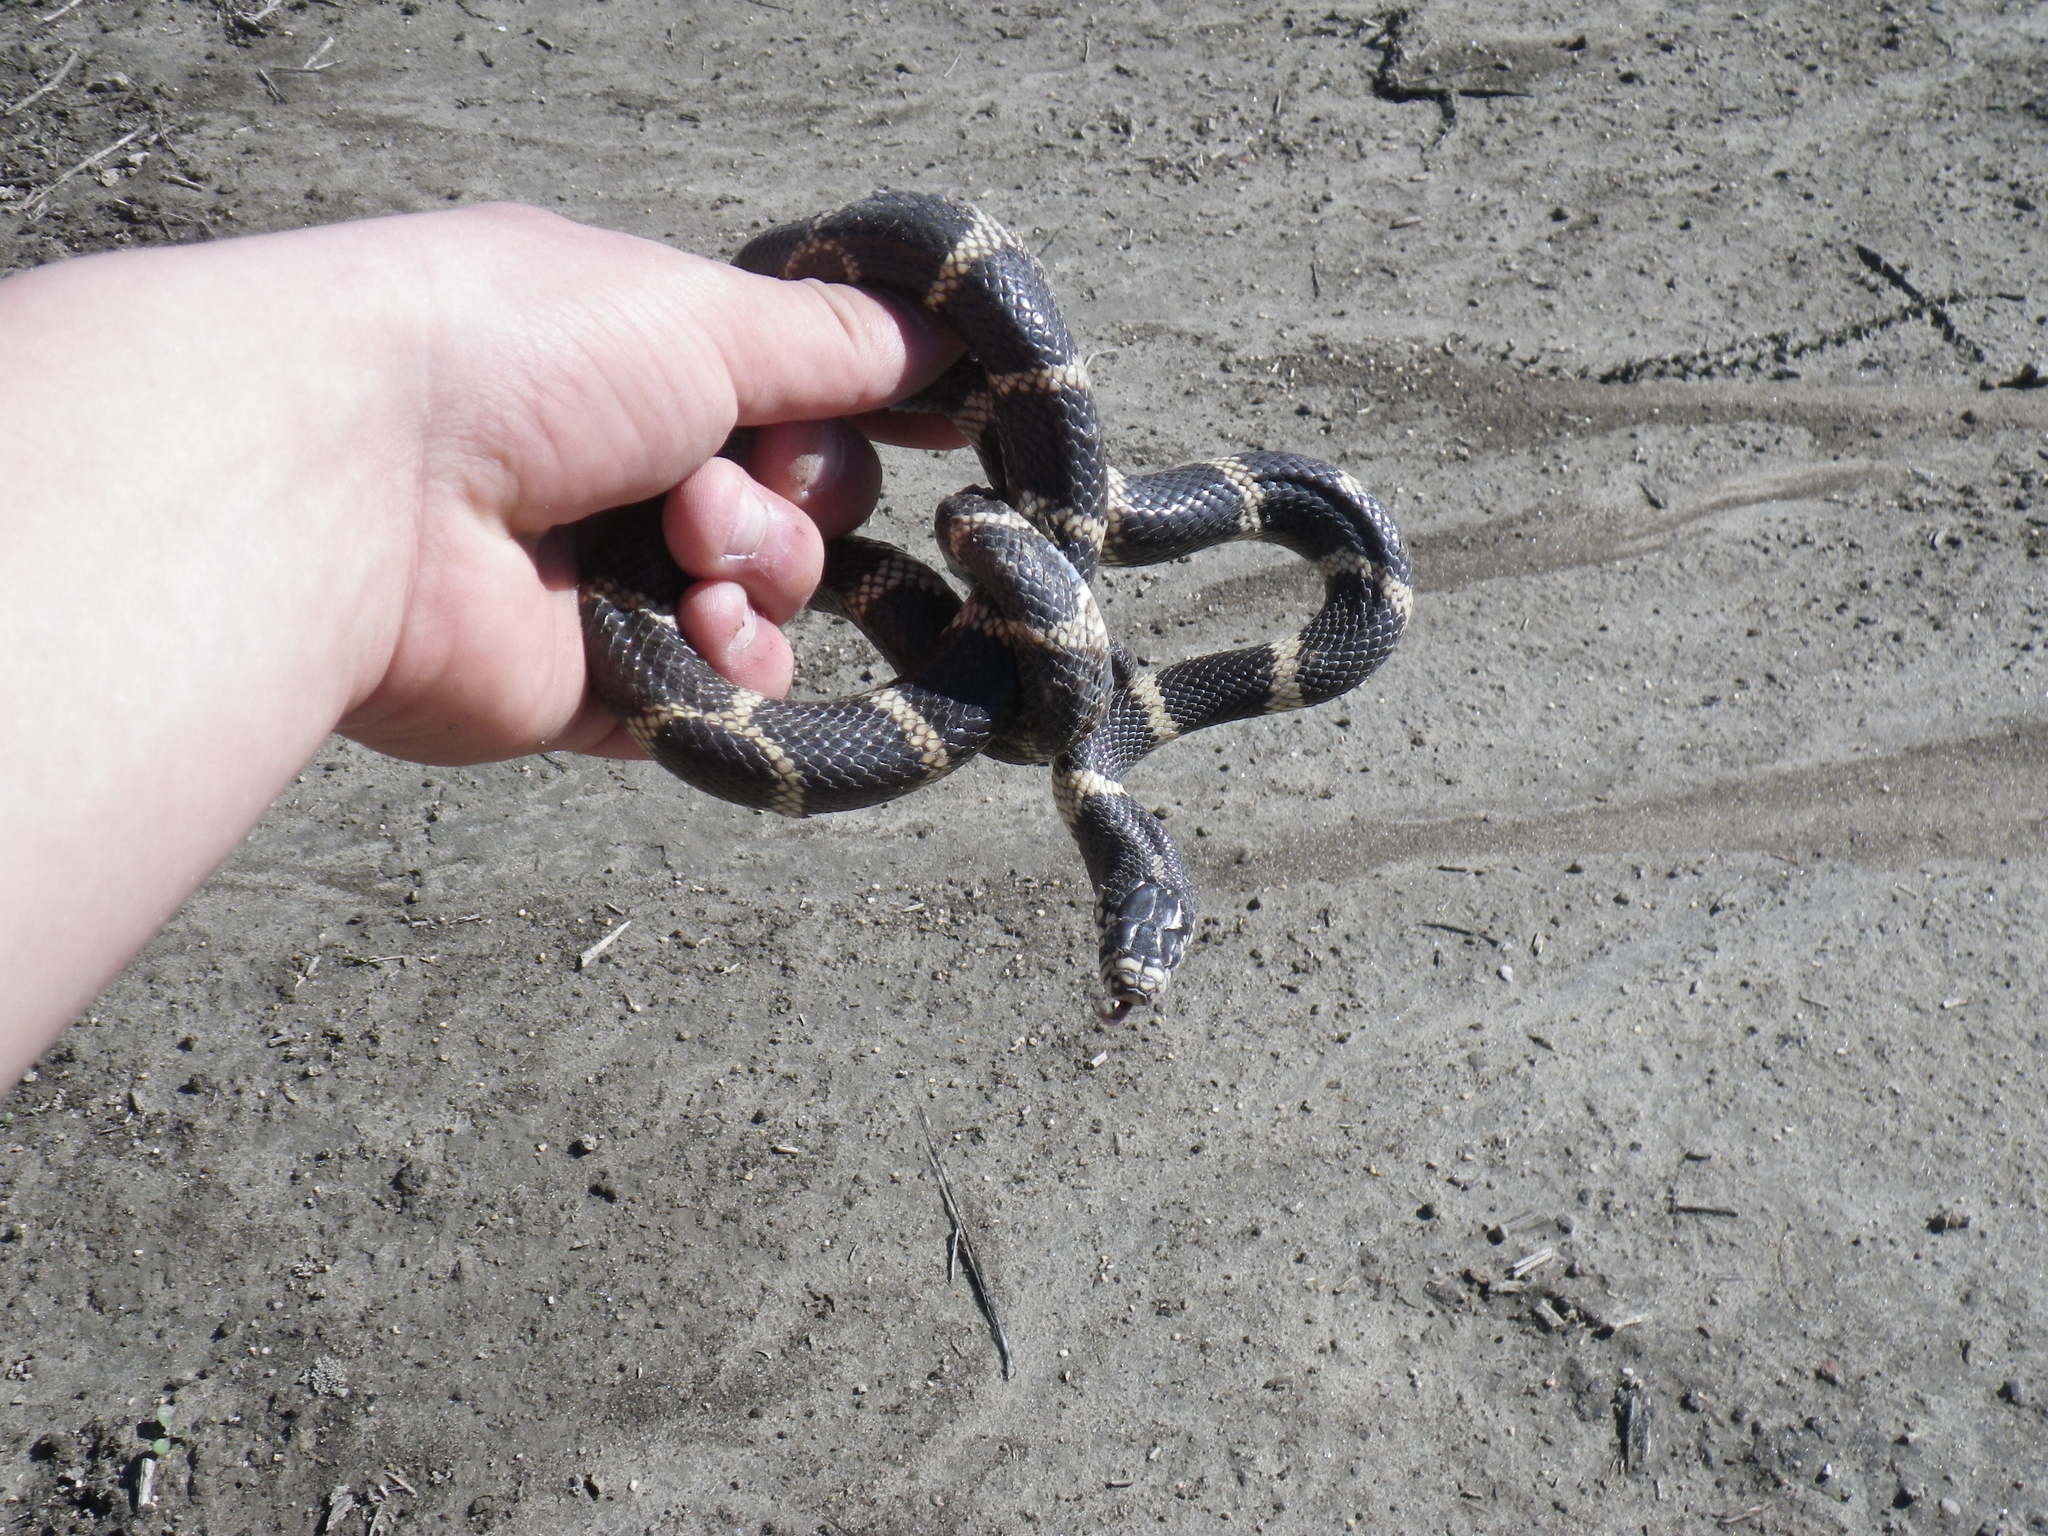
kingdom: Animalia
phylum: Chordata
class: Squamata
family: Colubridae
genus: Lampropeltis
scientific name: Lampropeltis californiae
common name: California kingsnake
